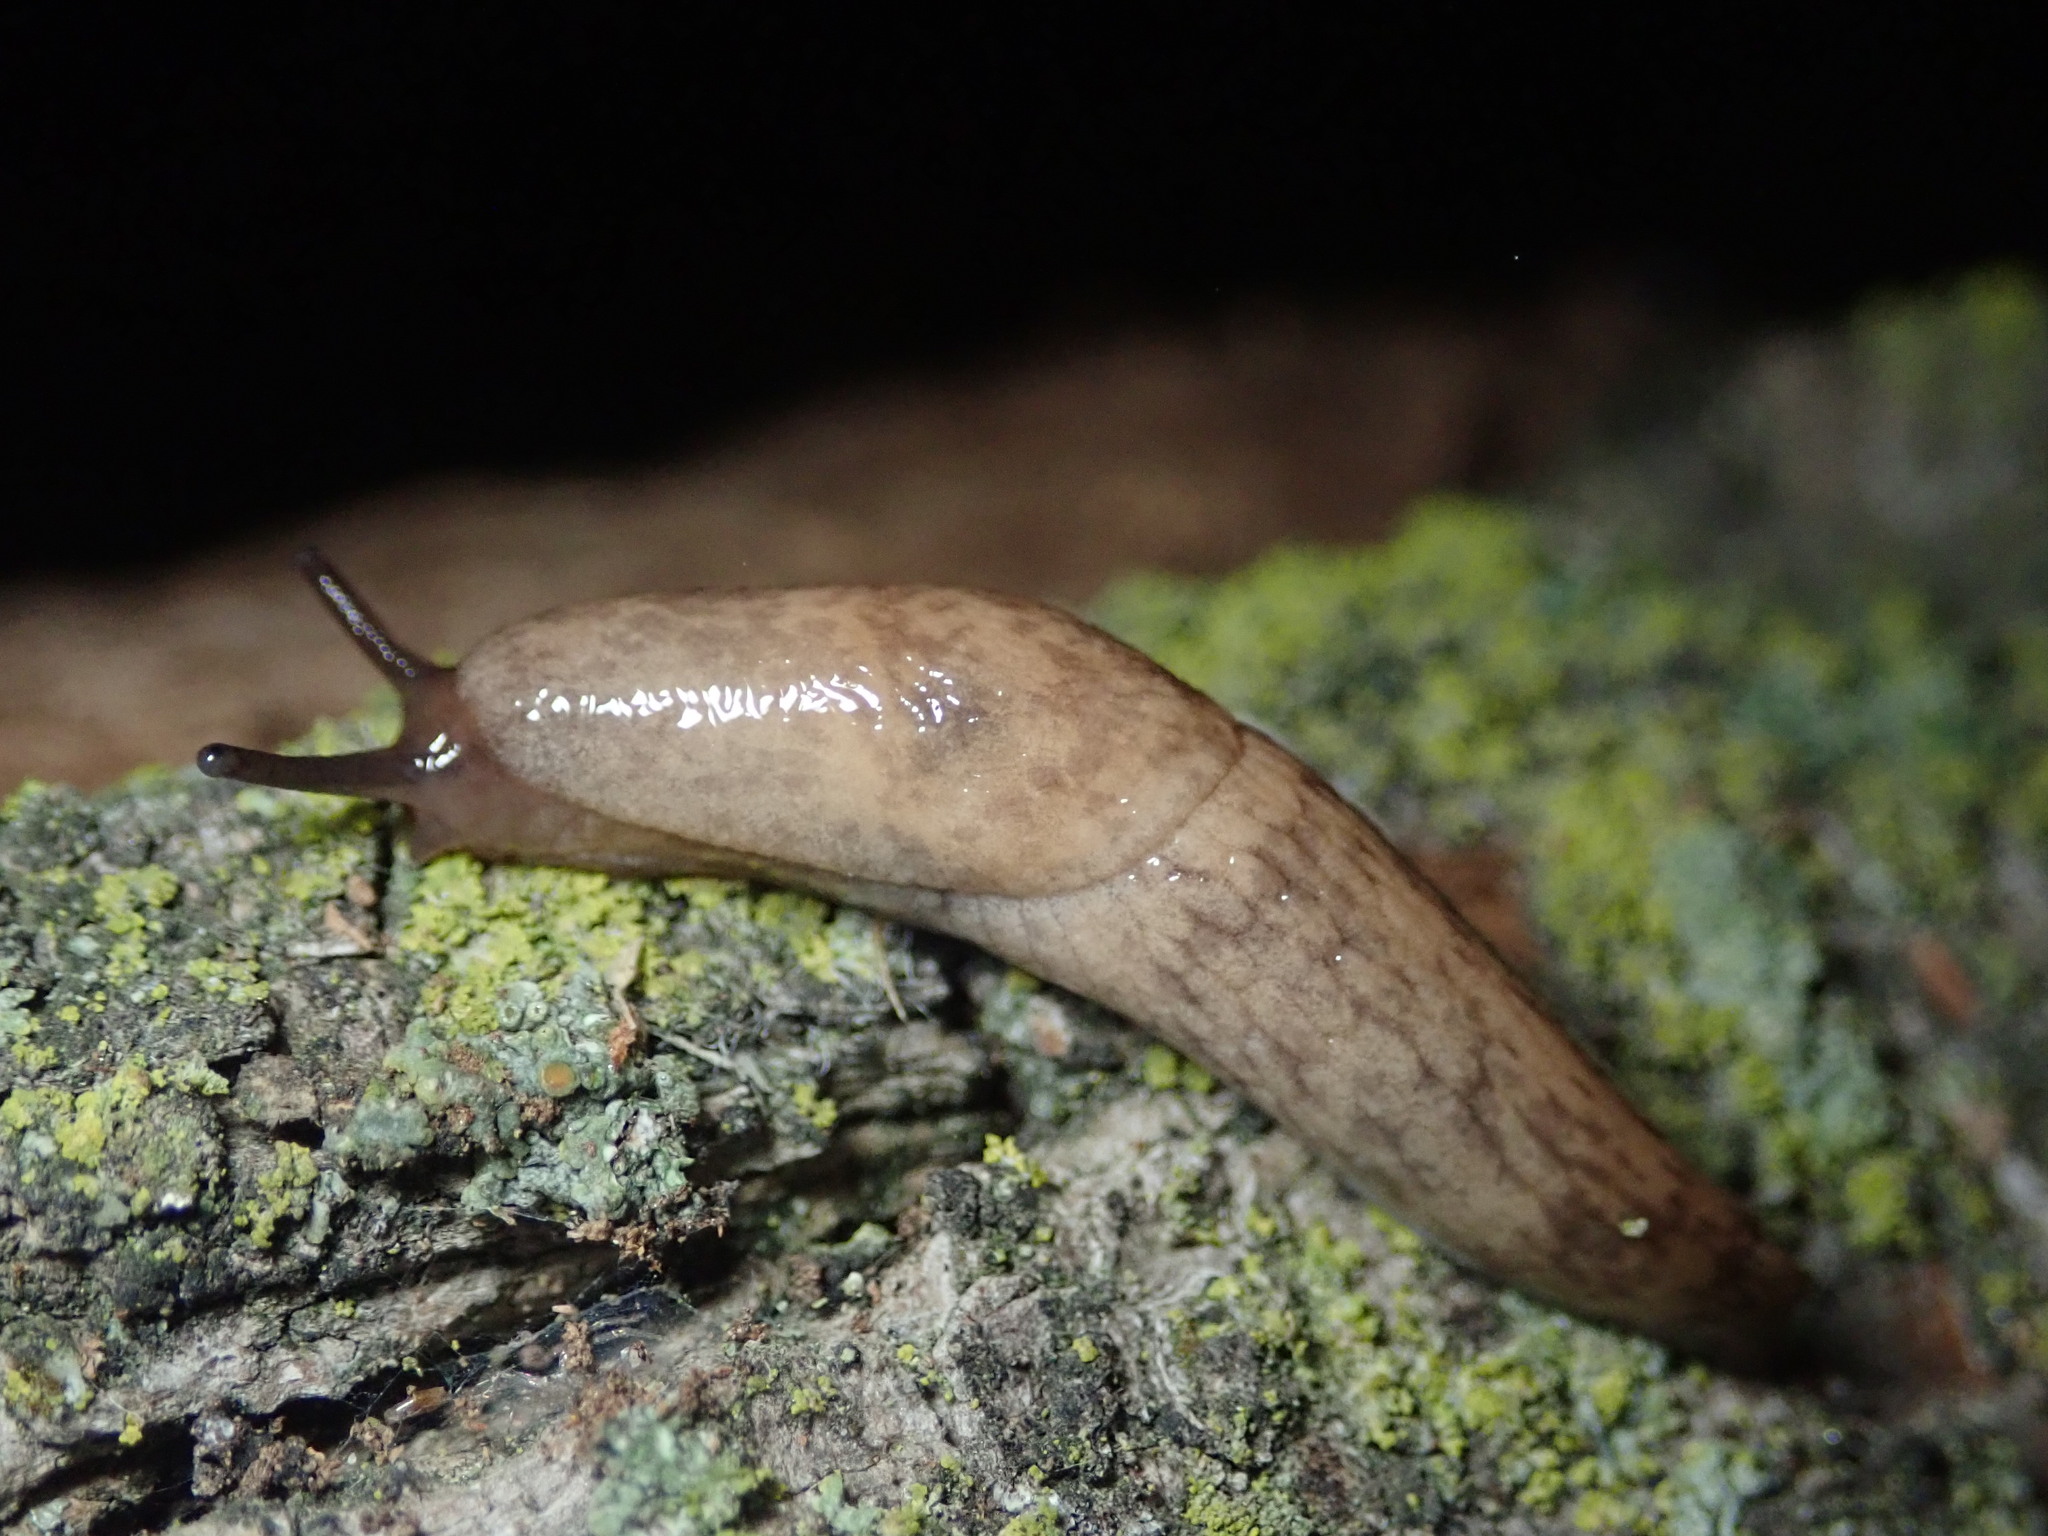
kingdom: Animalia
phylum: Mollusca
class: Gastropoda
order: Stylommatophora
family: Agriolimacidae
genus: Deroceras
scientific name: Deroceras reticulatum
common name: Gray field slug
